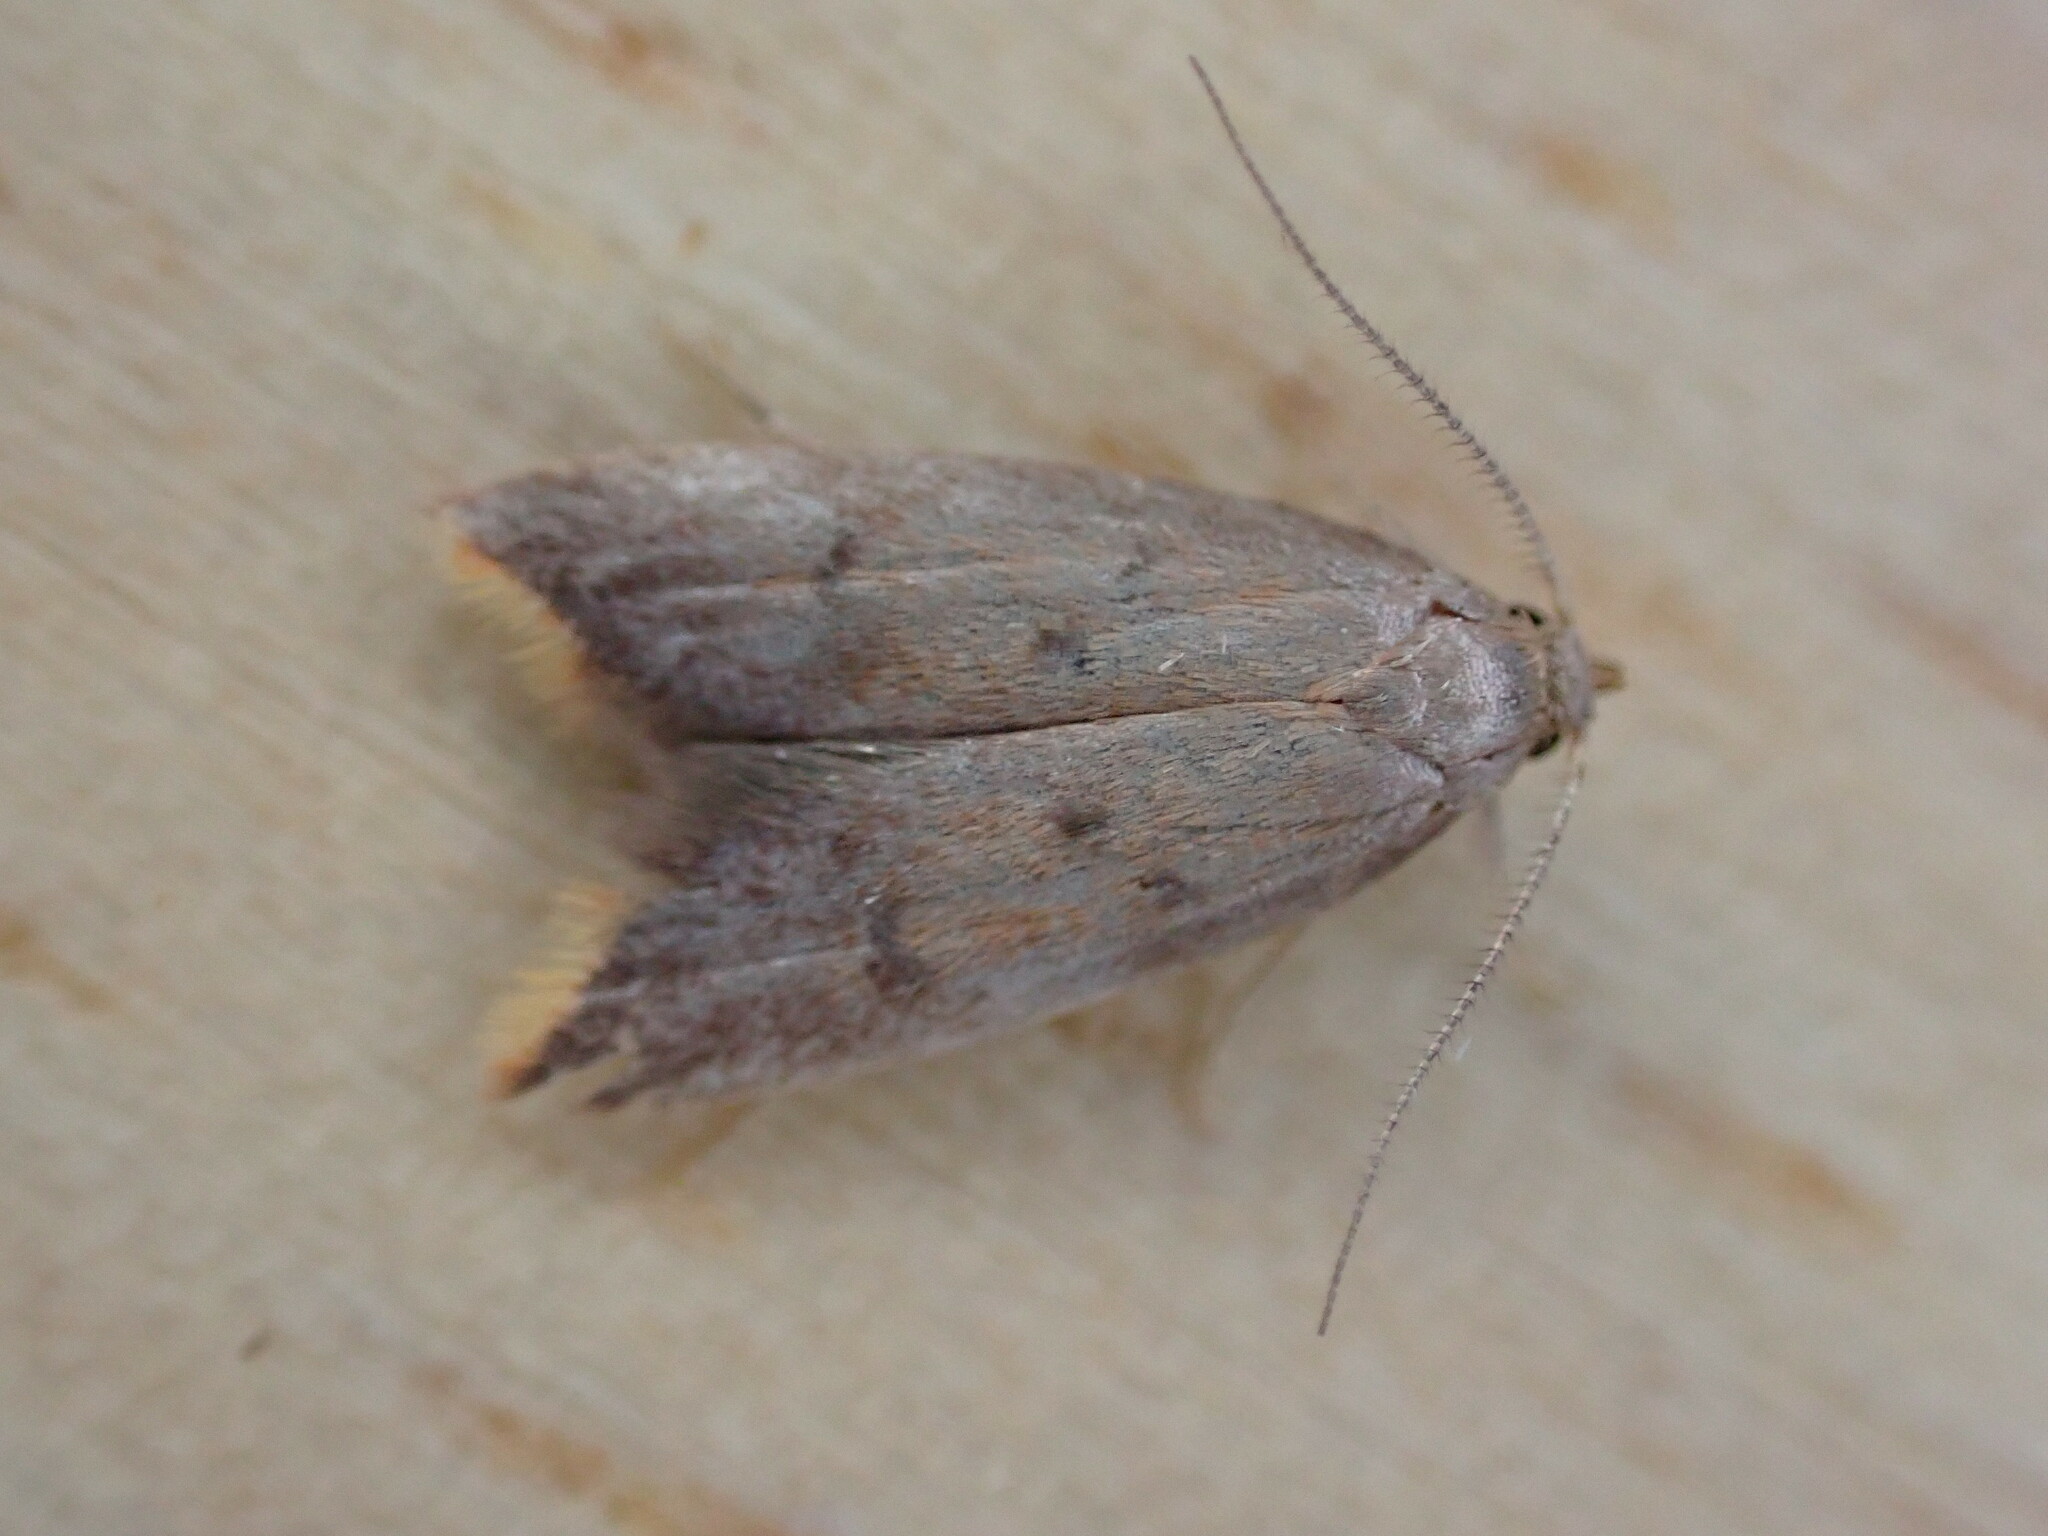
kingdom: Animalia
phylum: Arthropoda
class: Insecta
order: Lepidoptera
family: Oecophoridae
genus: Tachystola
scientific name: Tachystola acroxantha
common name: Ruddy streak
